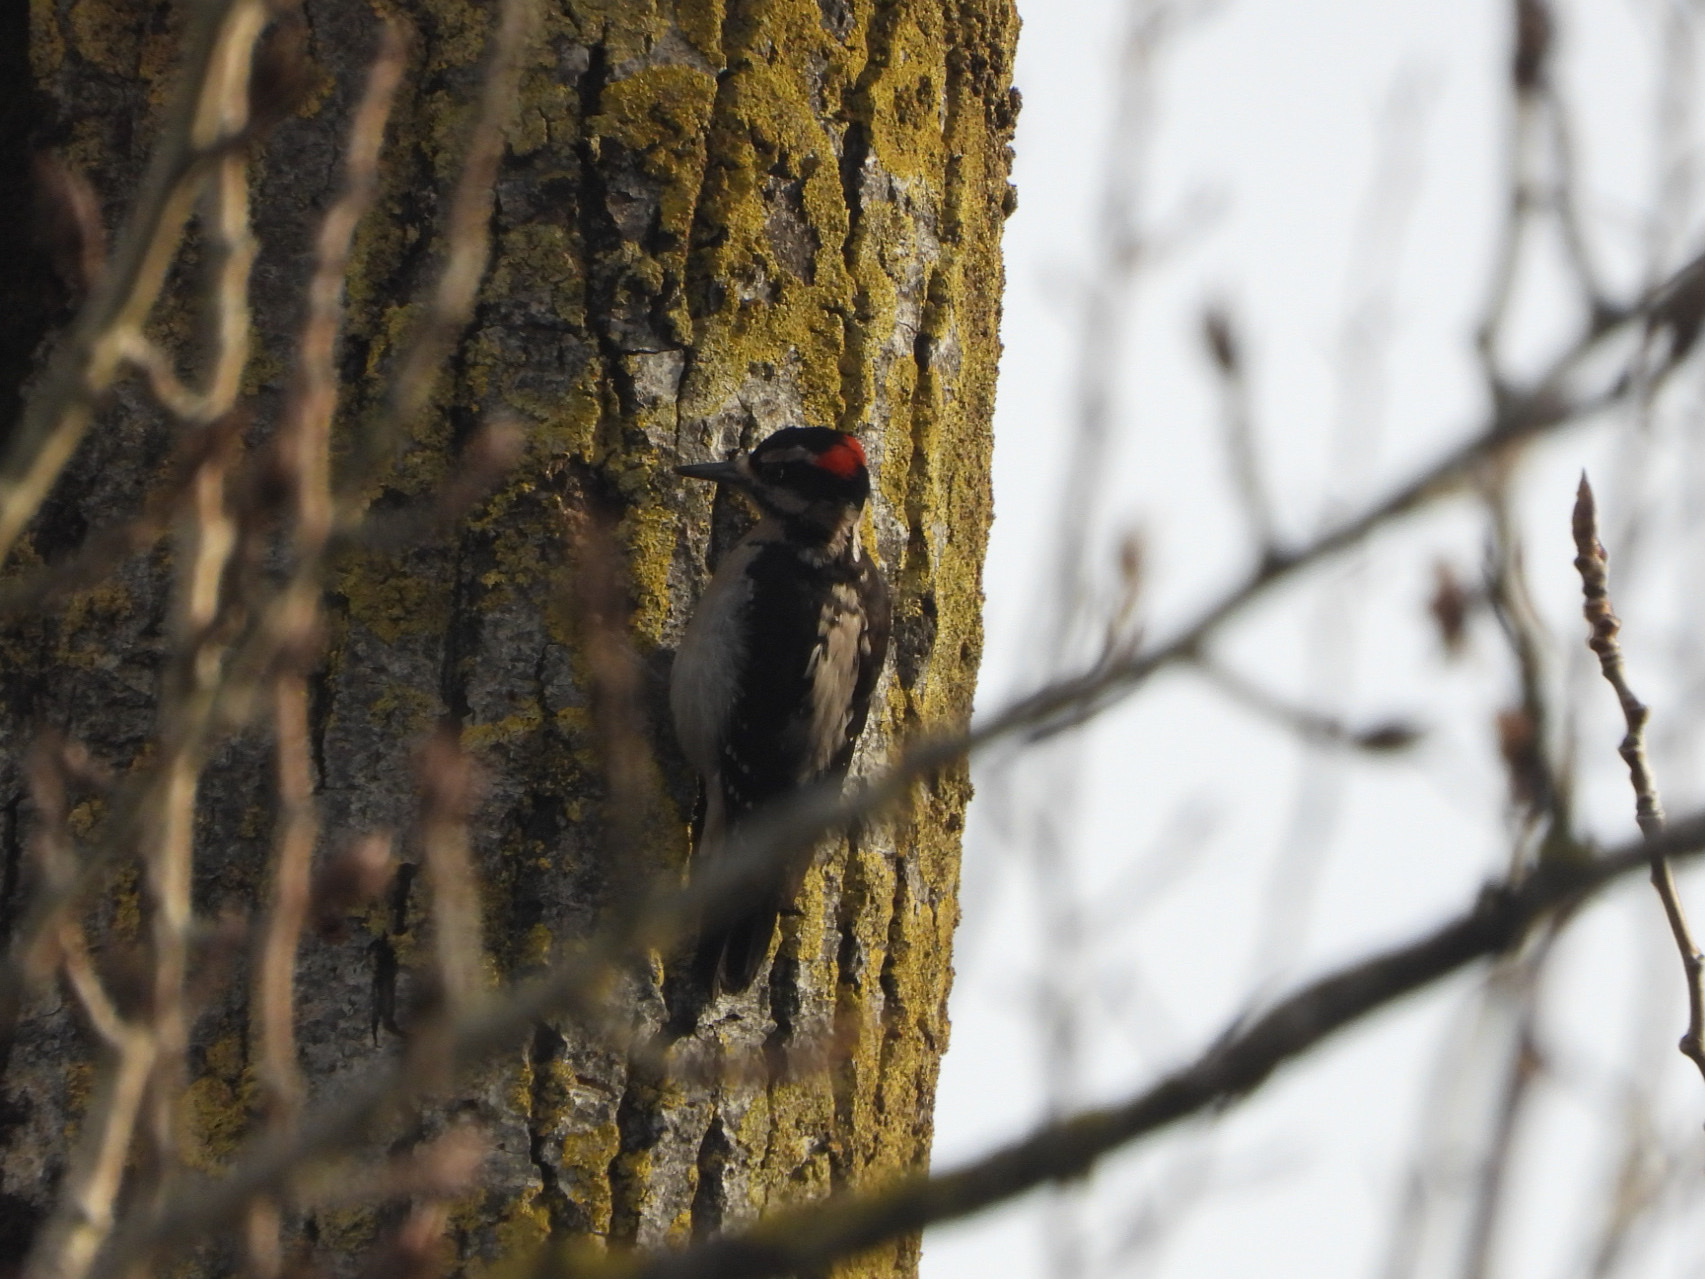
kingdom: Animalia
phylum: Chordata
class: Aves
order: Piciformes
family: Picidae
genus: Leuconotopicus
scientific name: Leuconotopicus villosus
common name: Hairy woodpecker
